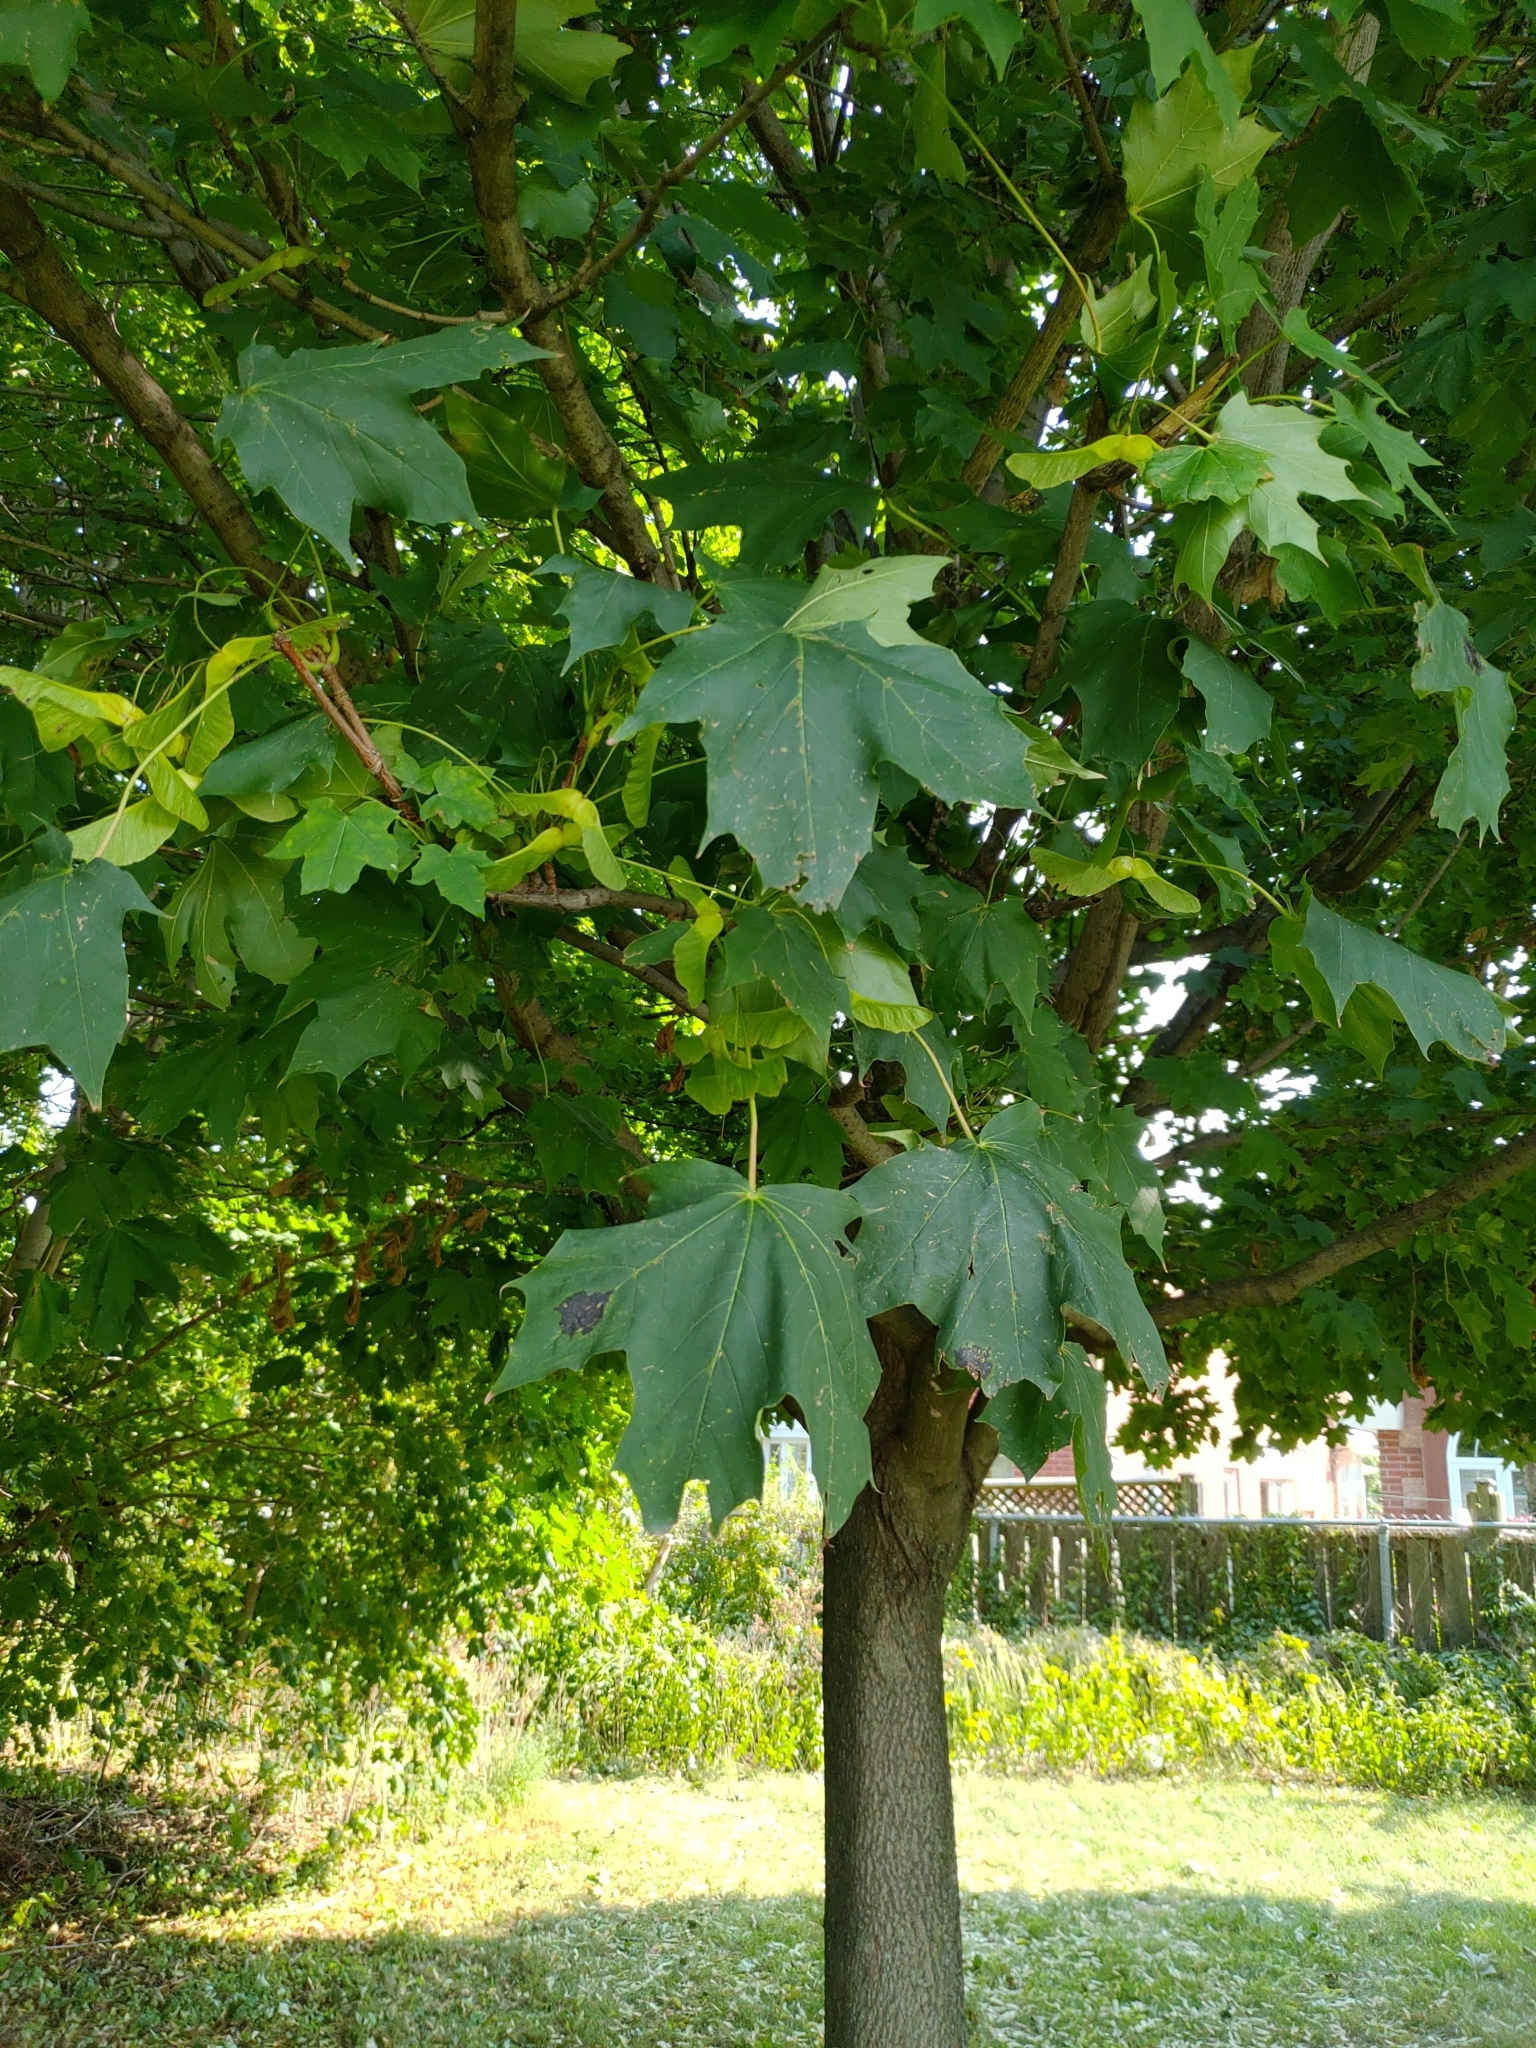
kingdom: Plantae
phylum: Tracheophyta
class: Magnoliopsida
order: Sapindales
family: Sapindaceae
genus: Acer
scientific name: Acer platanoides
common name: Norway maple
